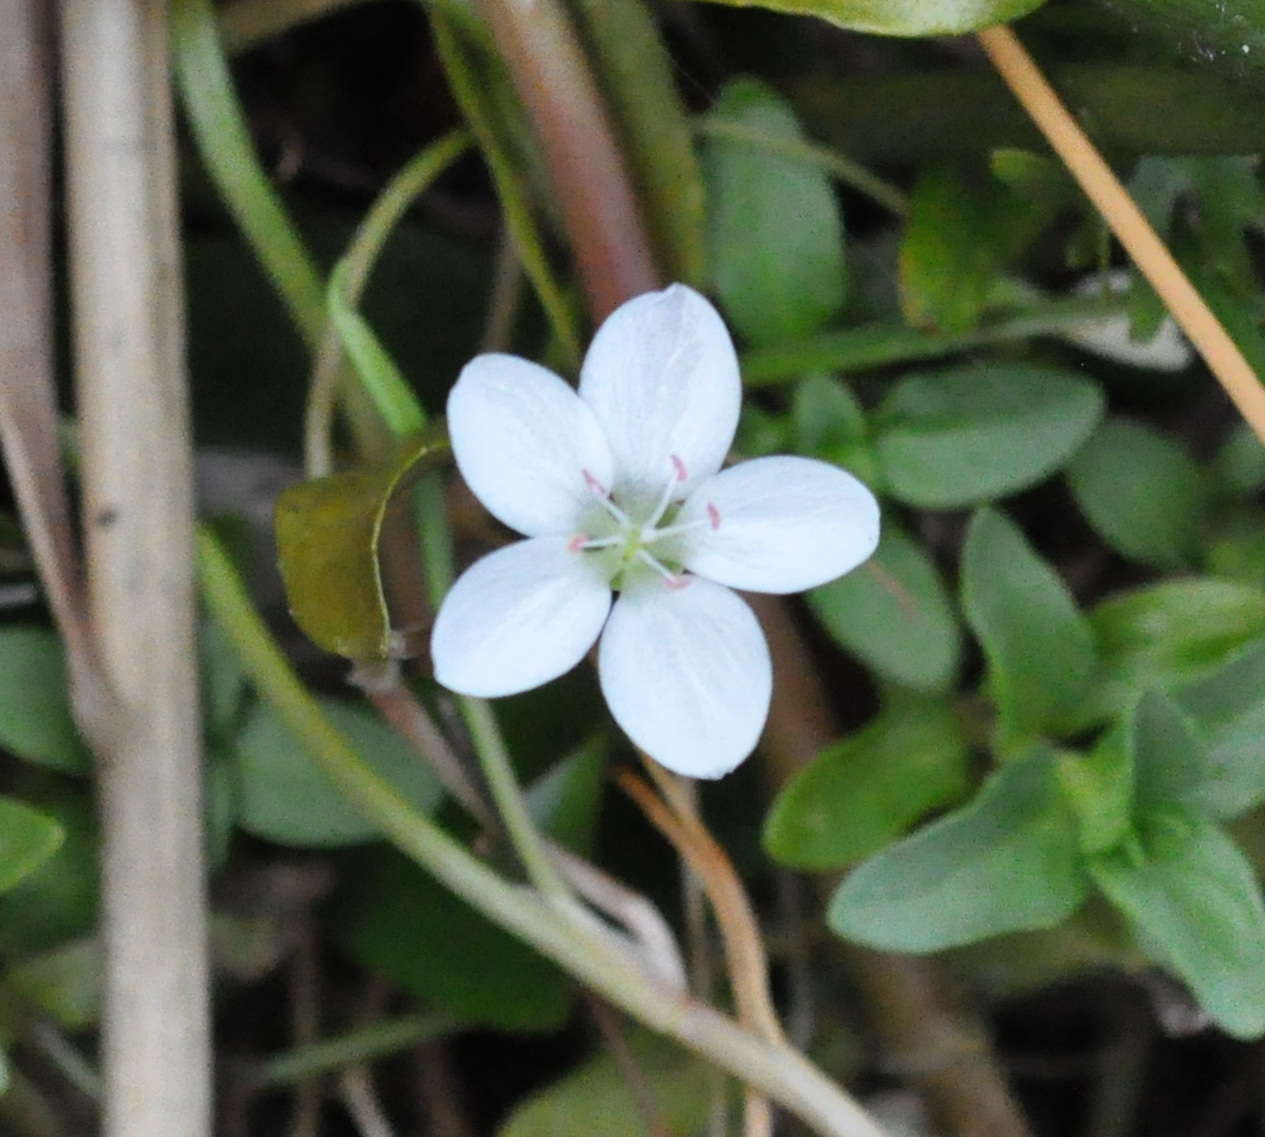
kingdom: Plantae
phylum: Tracheophyta
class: Magnoliopsida
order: Caryophyllales
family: Montiaceae
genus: Montia
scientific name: Montia australasica
